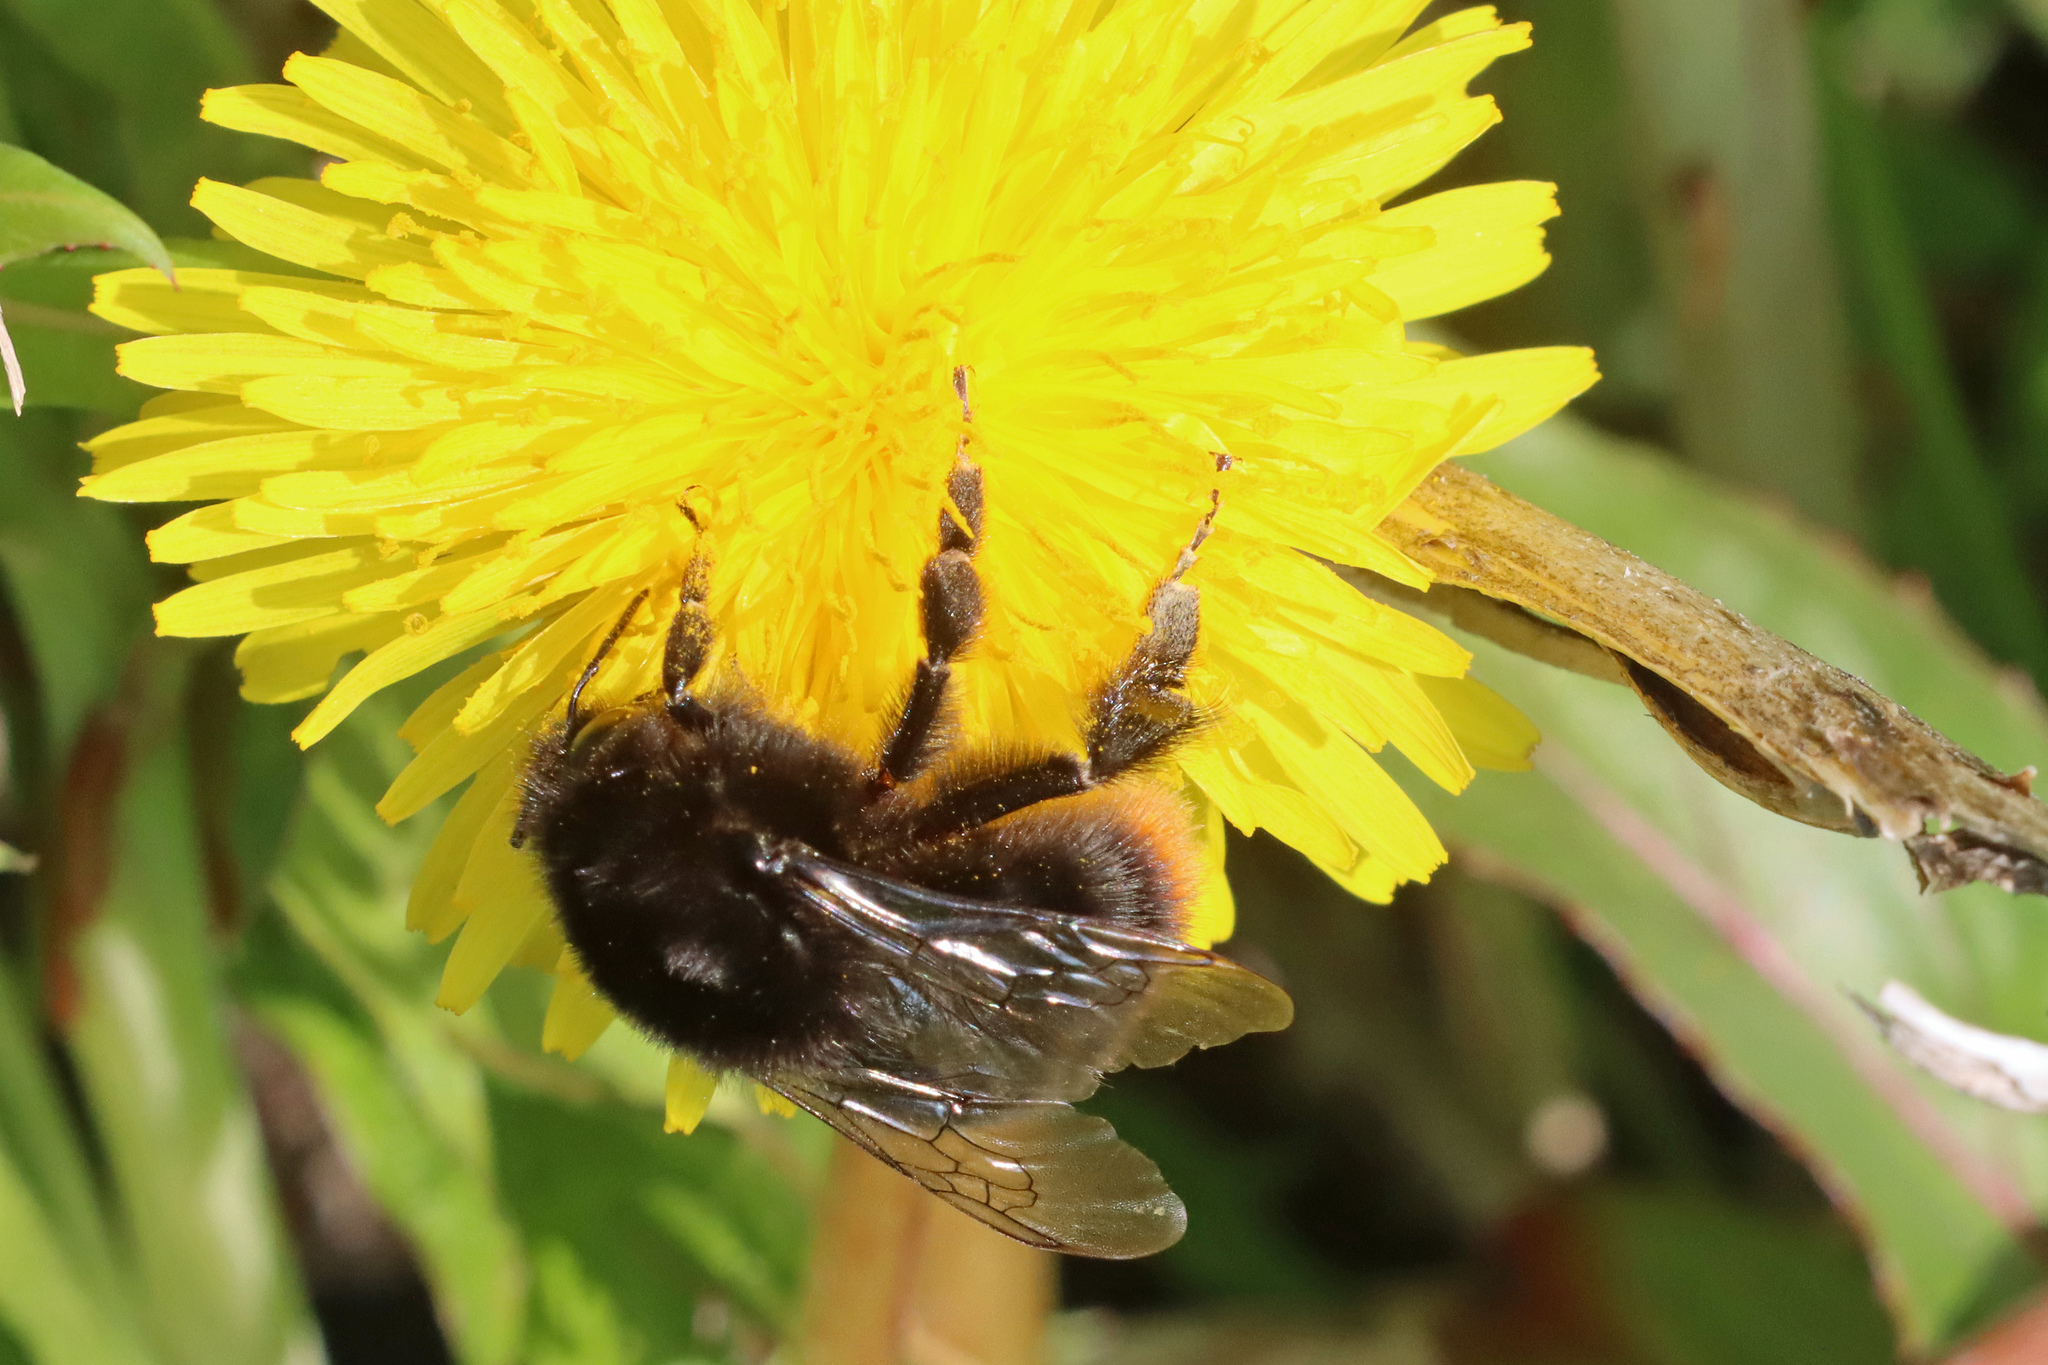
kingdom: Animalia
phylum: Arthropoda
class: Insecta
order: Hymenoptera
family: Apidae
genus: Bombus
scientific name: Bombus lapidarius
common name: Large red-tailed humble-bee
